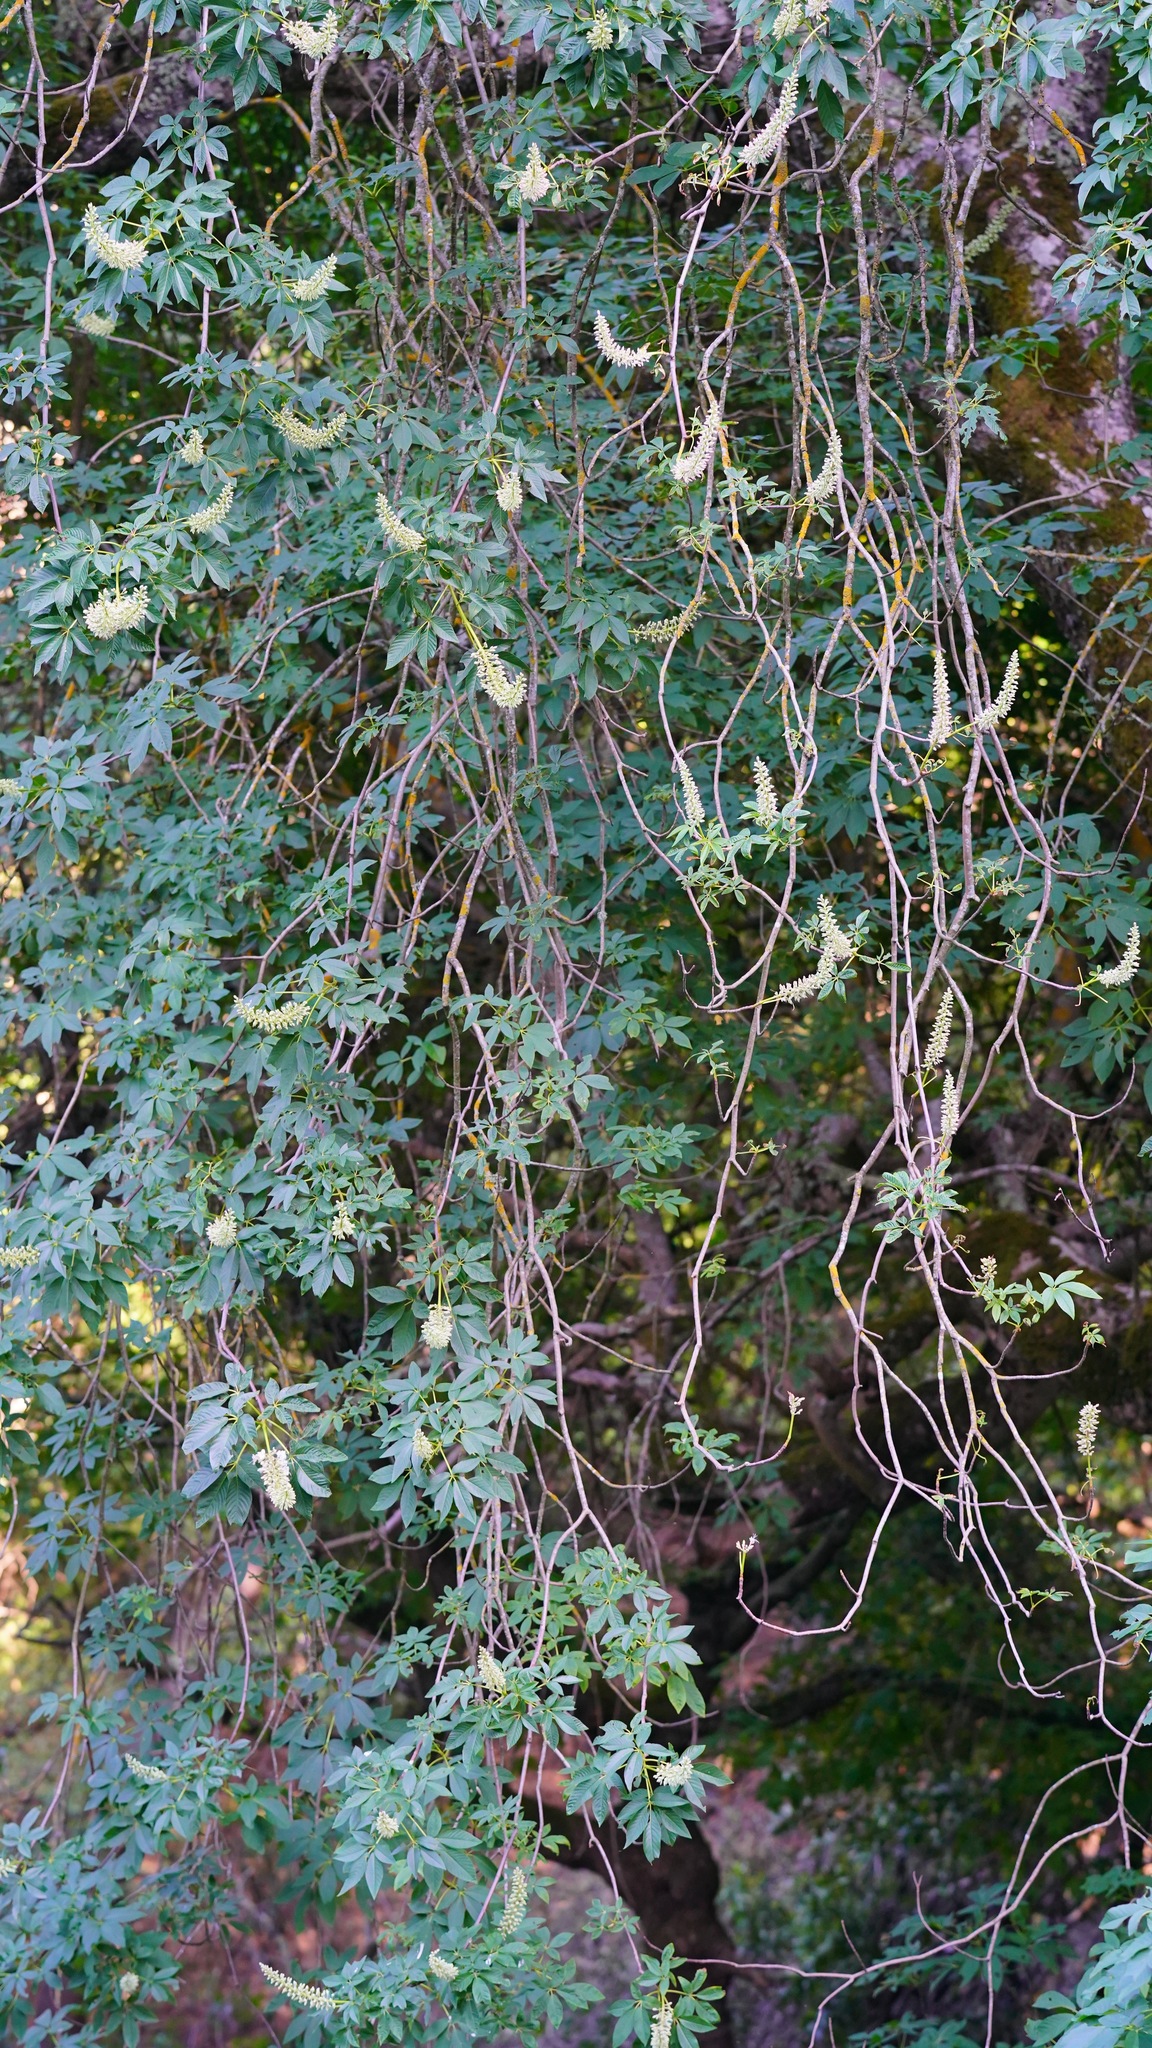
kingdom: Plantae
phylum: Tracheophyta
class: Magnoliopsida
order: Sapindales
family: Sapindaceae
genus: Aesculus
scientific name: Aesculus californica
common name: California buckeye
